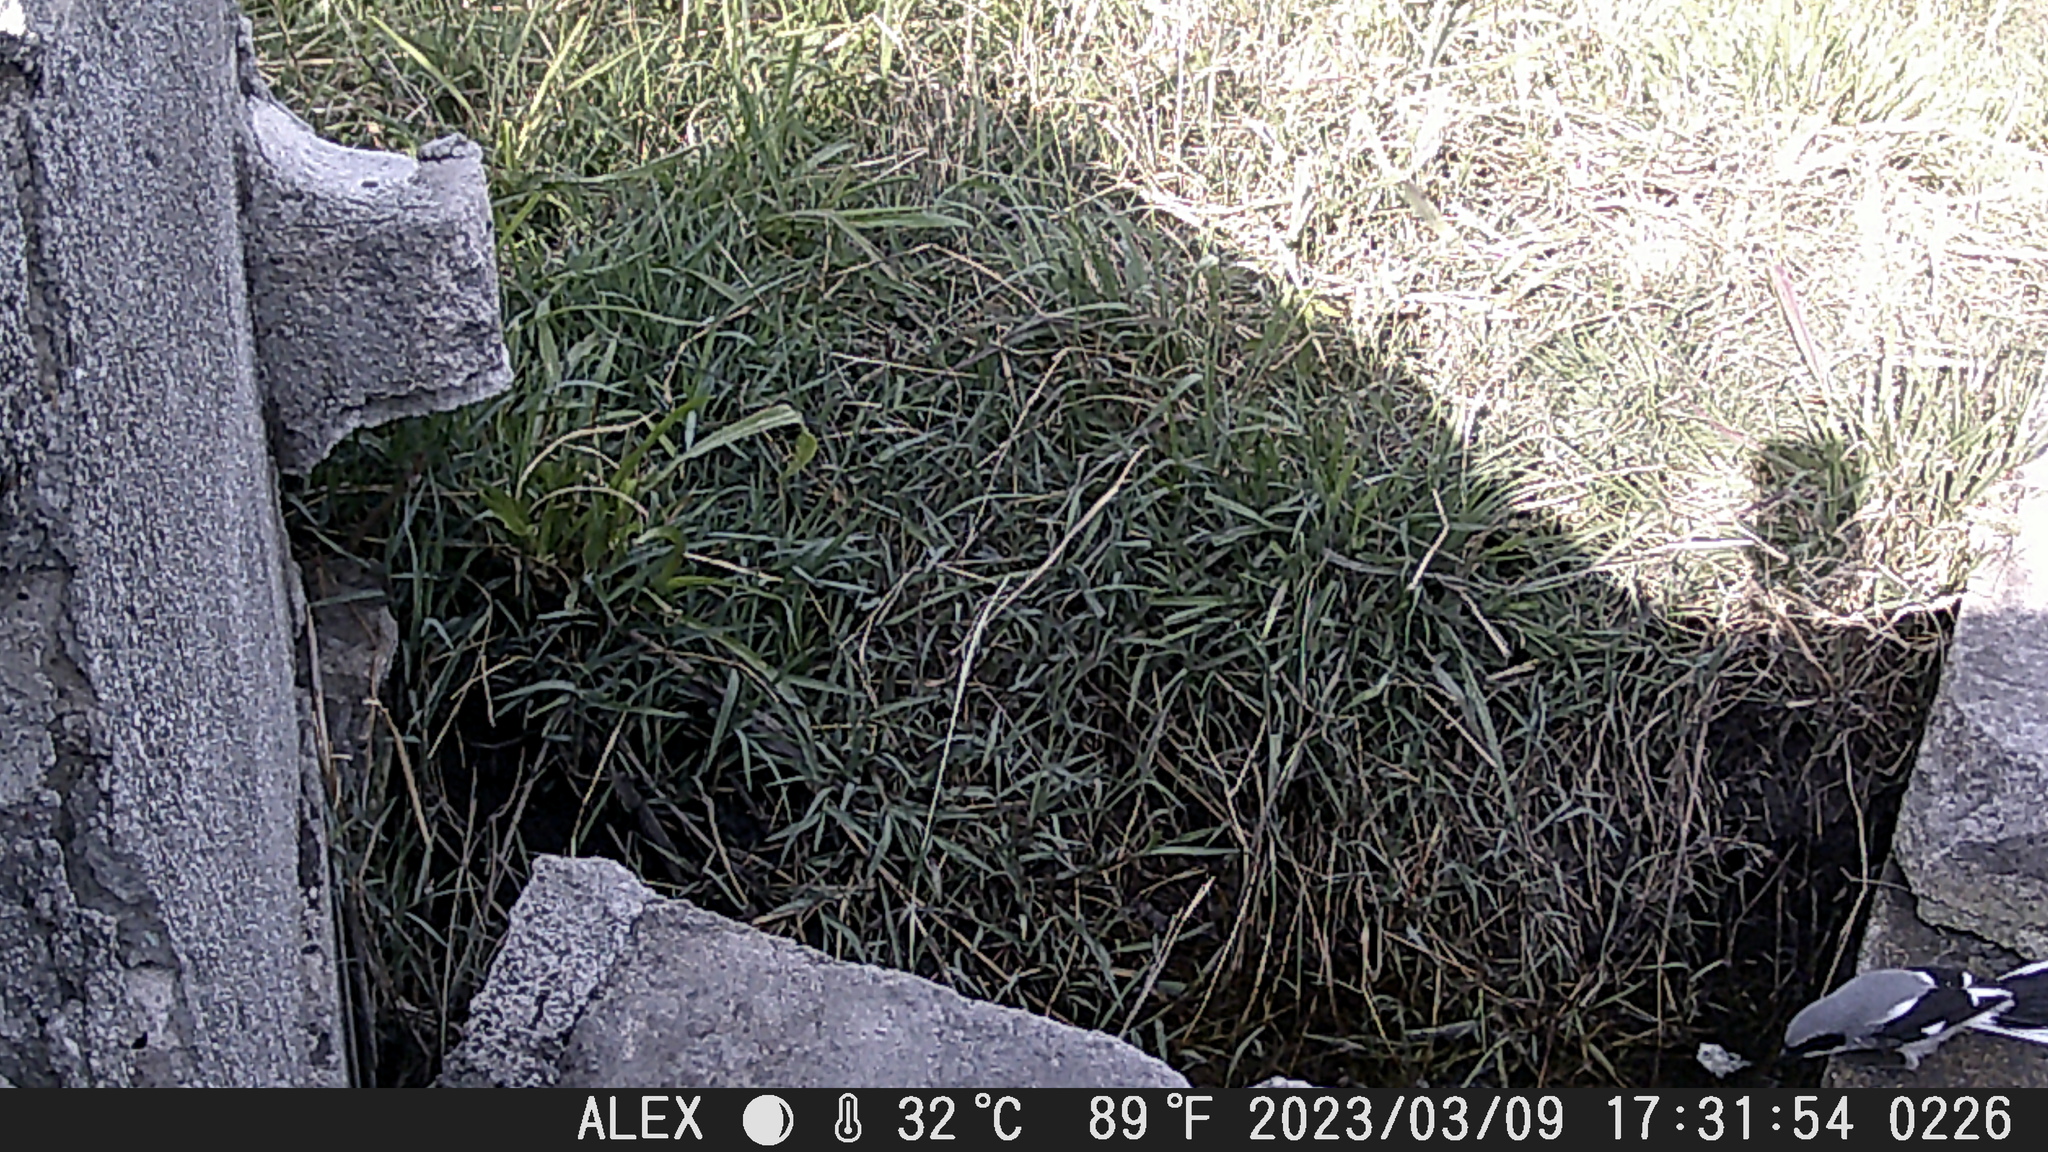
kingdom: Animalia
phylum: Chordata
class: Aves
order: Passeriformes
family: Laniidae
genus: Lanius
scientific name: Lanius ludovicianus
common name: Loggerhead shrike
